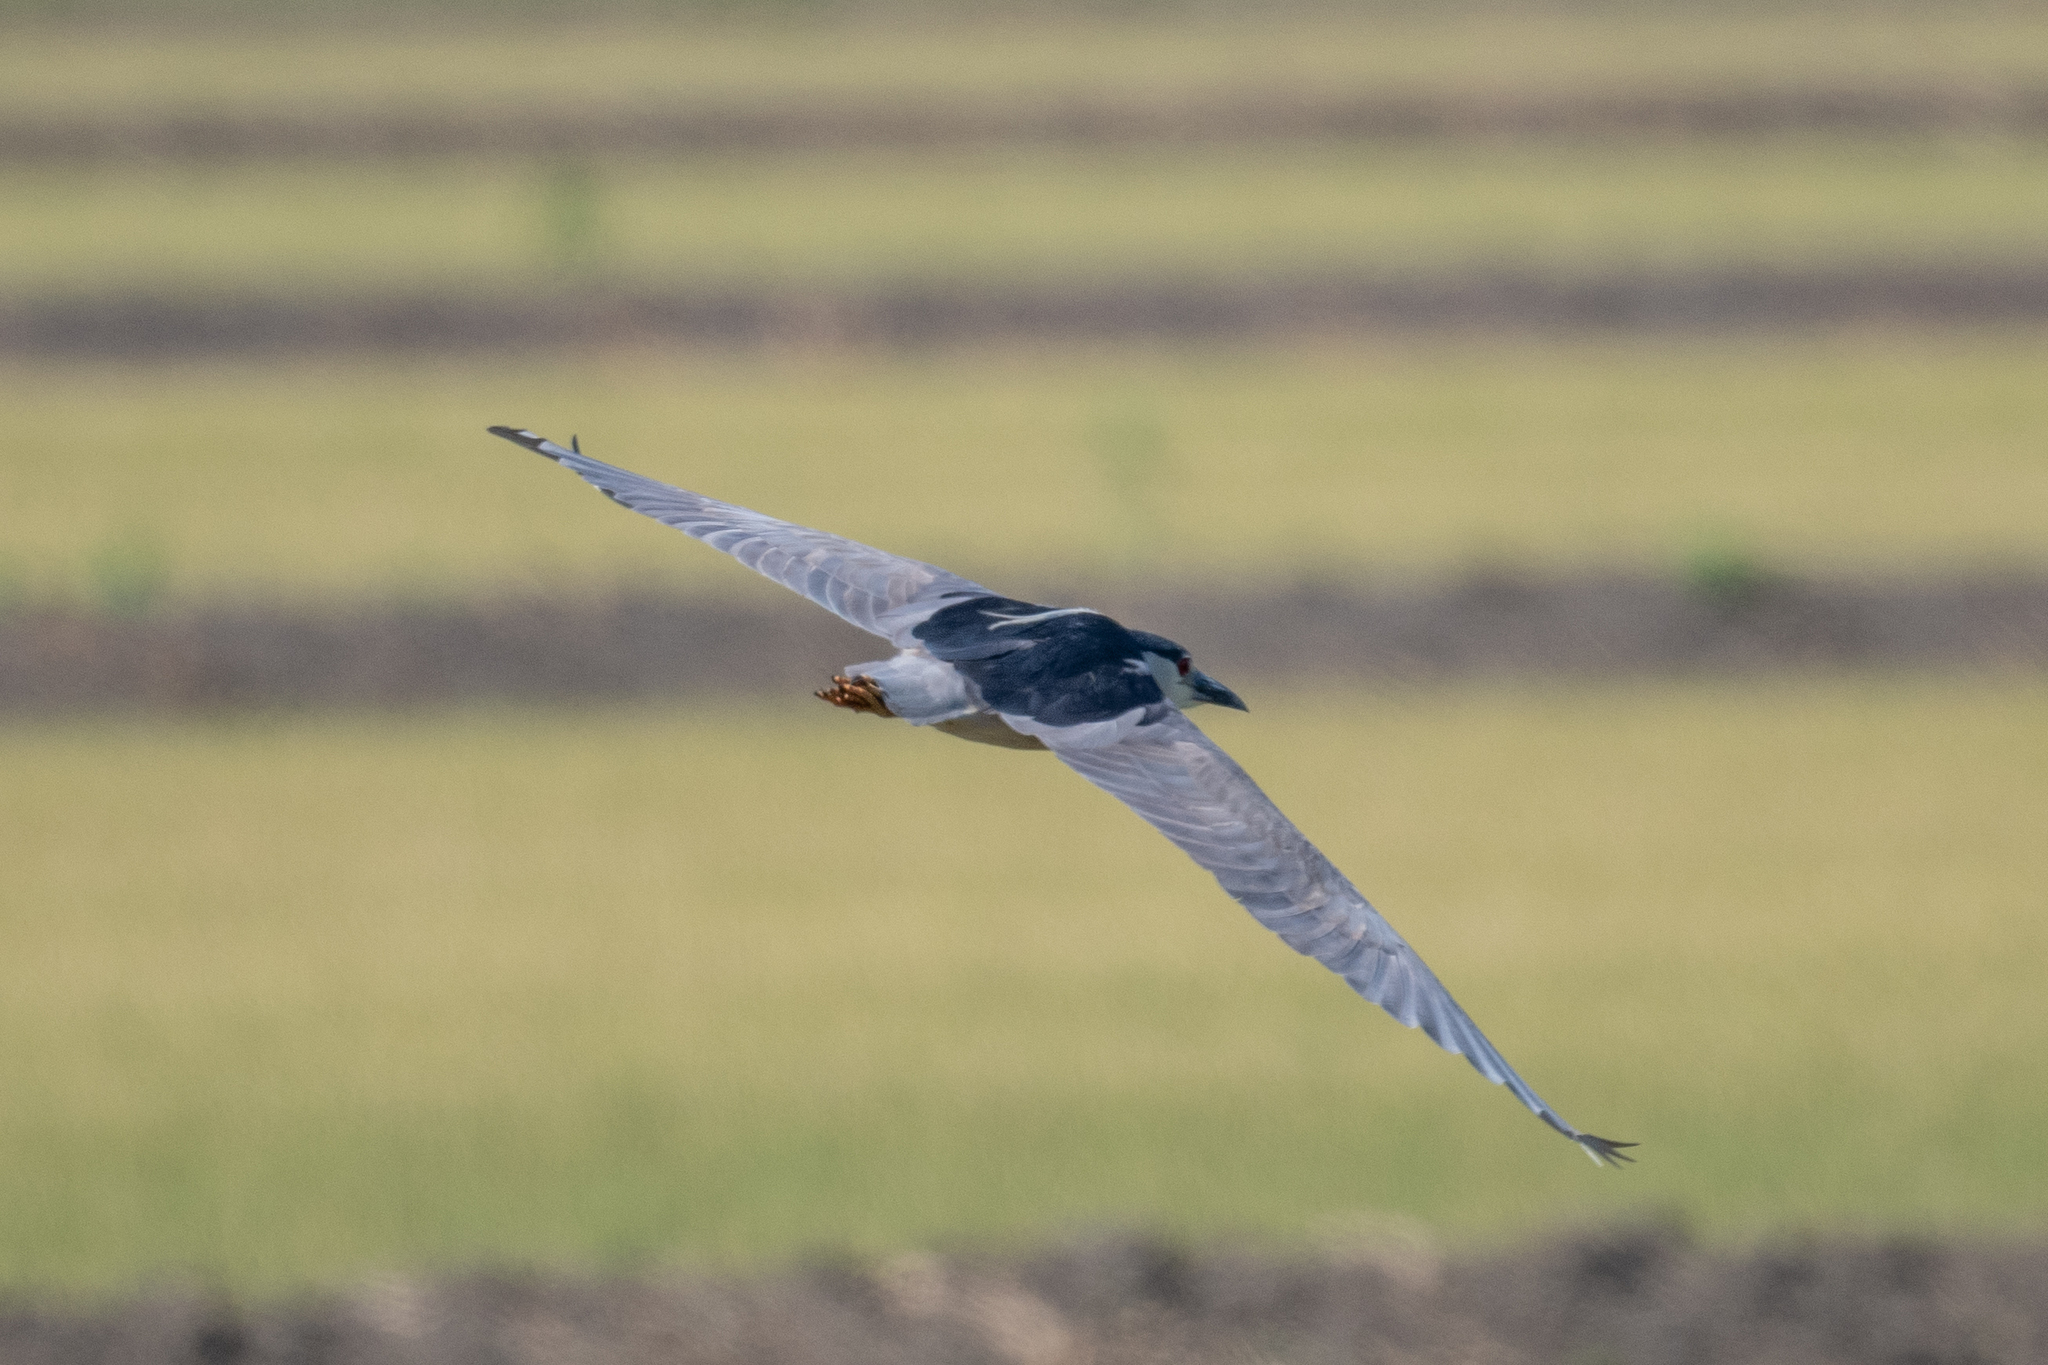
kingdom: Animalia
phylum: Chordata
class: Aves
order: Pelecaniformes
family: Ardeidae
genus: Nycticorax
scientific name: Nycticorax nycticorax
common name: Black-crowned night heron
